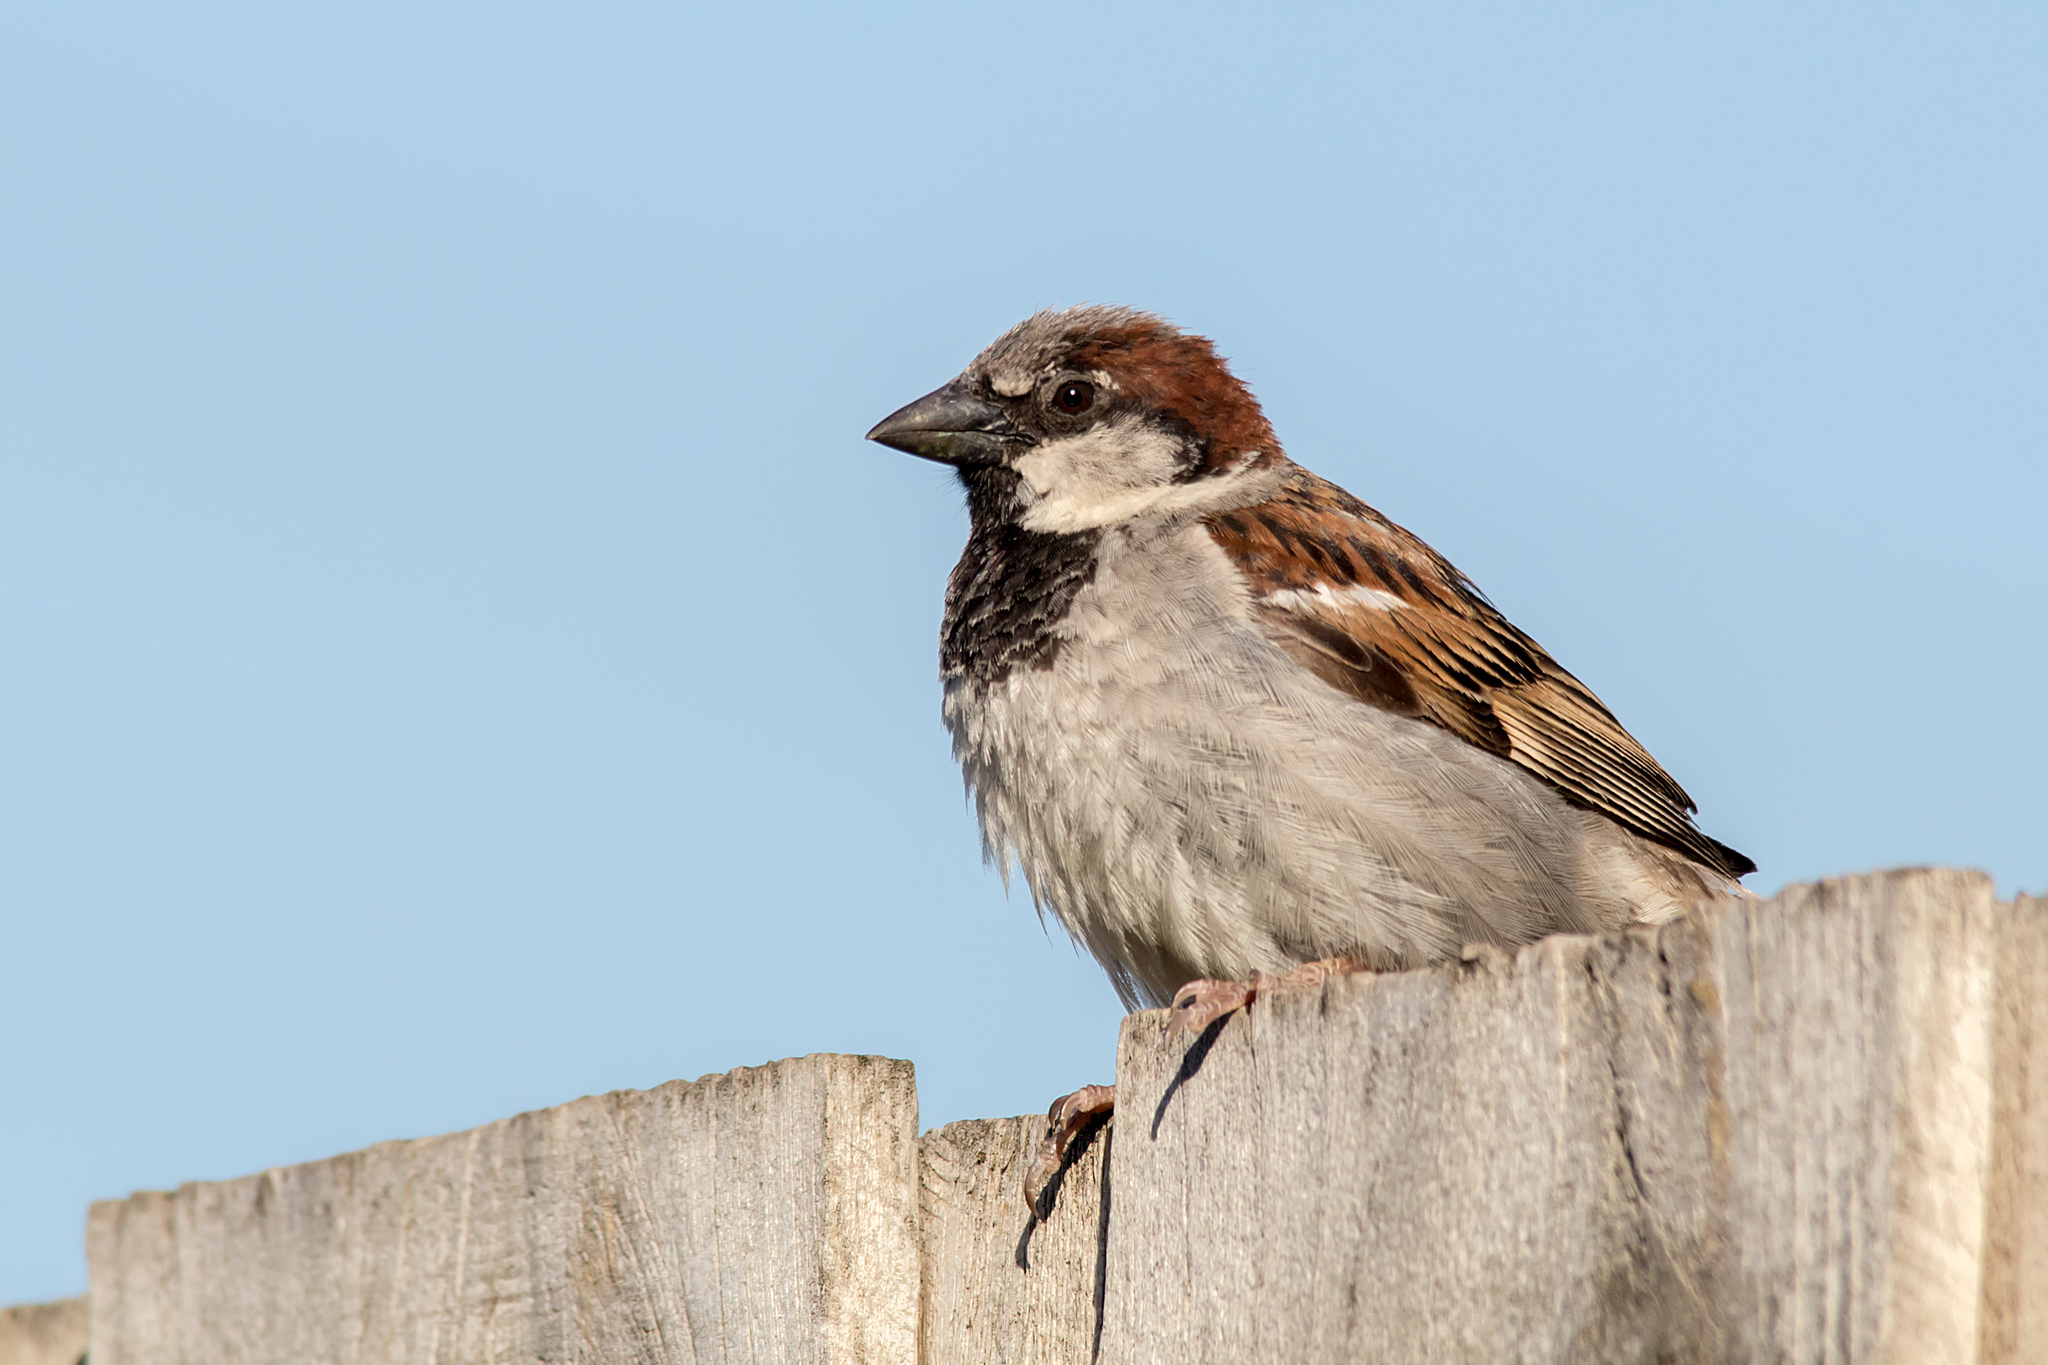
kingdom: Animalia
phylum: Chordata
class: Aves
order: Passeriformes
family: Passeridae
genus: Passer
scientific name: Passer domesticus
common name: House sparrow
